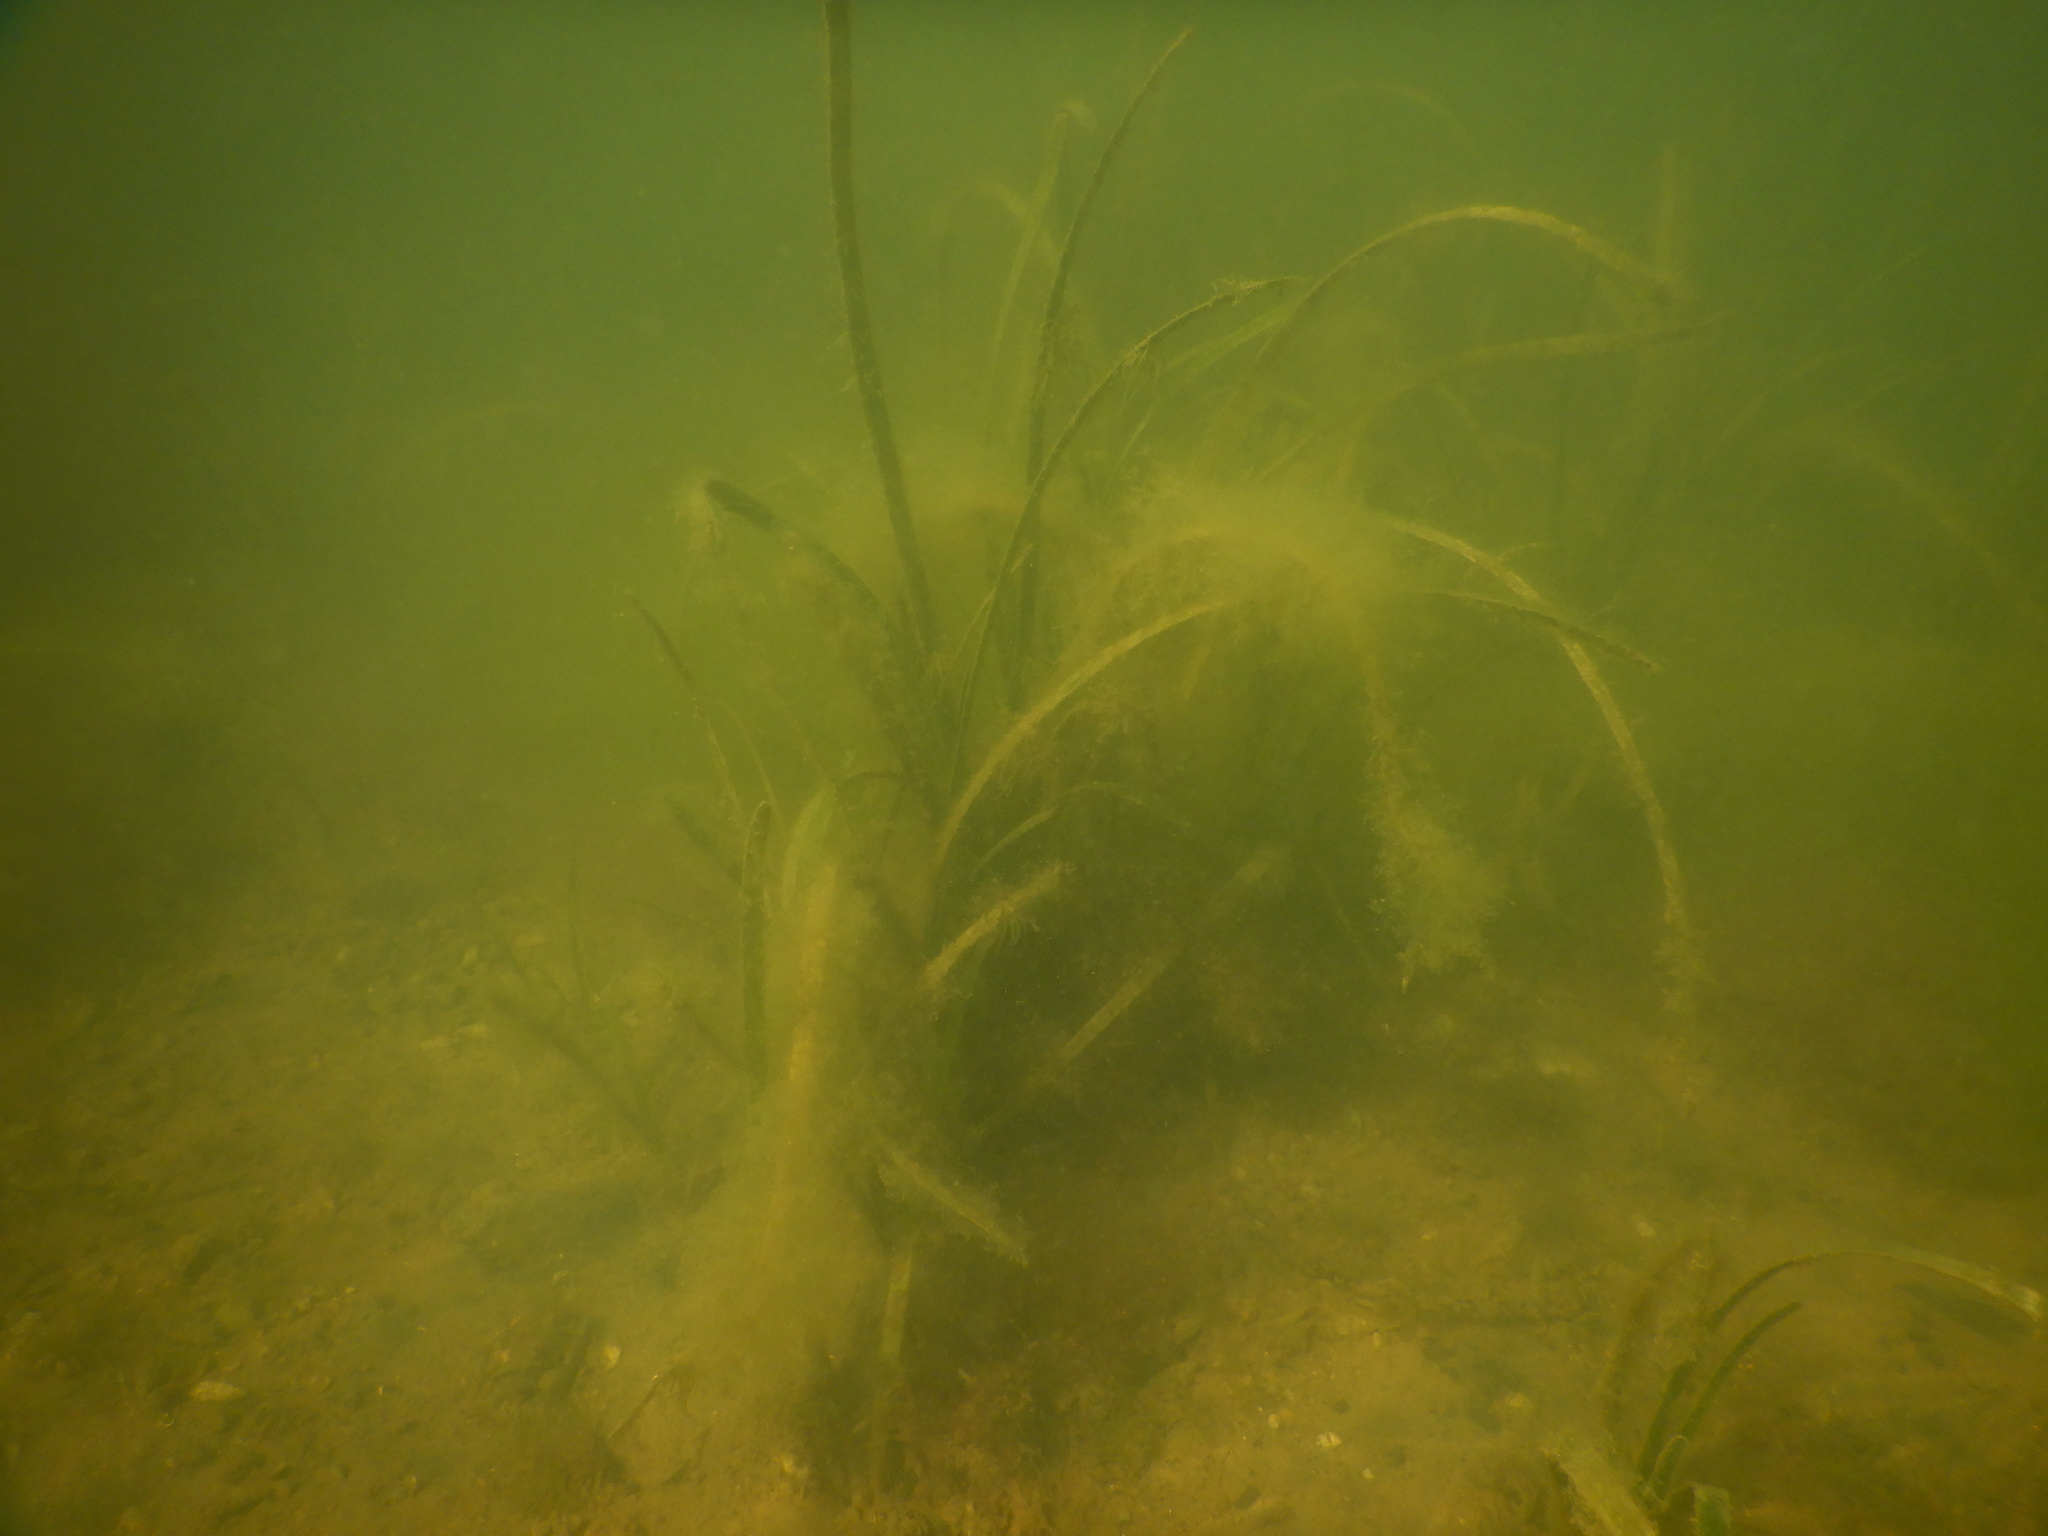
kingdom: Plantae
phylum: Tracheophyta
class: Liliopsida
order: Alismatales
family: Cymodoceaceae
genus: Cymodocea
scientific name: Cymodocea nodosa
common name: Slender seagrass
